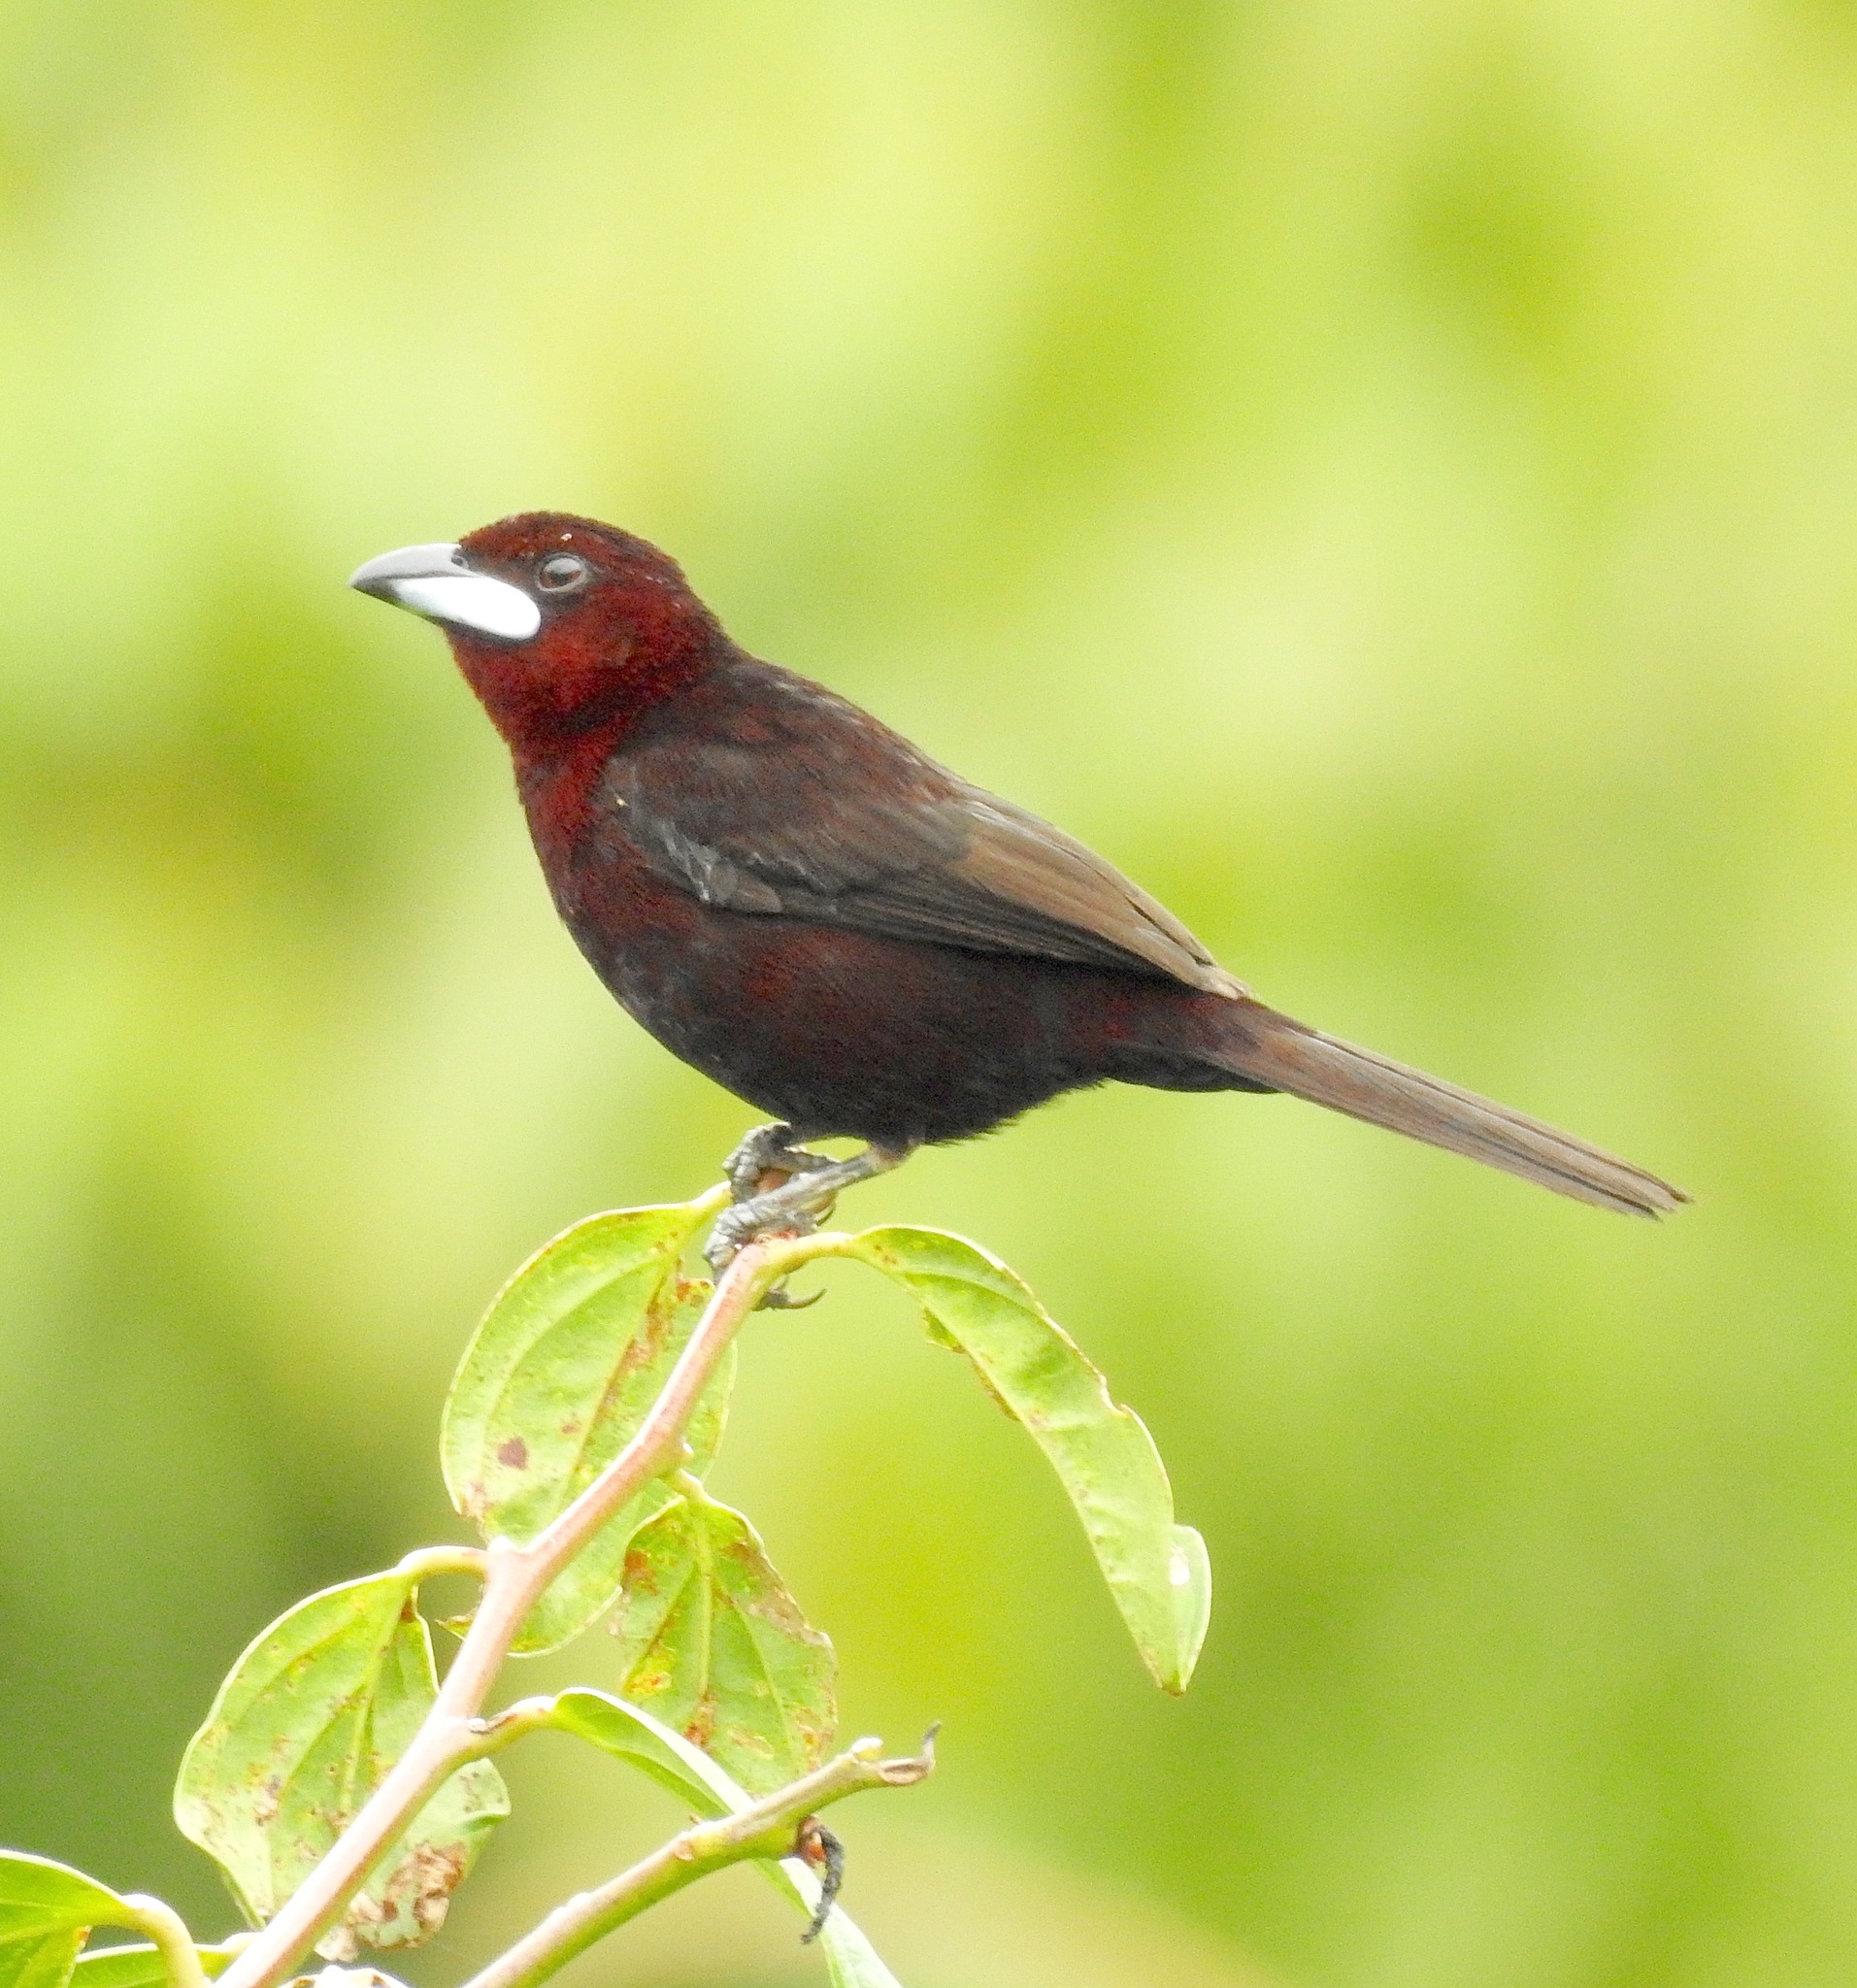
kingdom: Animalia
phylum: Chordata
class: Aves
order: Passeriformes
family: Thraupidae
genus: Ramphocelus
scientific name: Ramphocelus carbo
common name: Silver-beaked tanager
